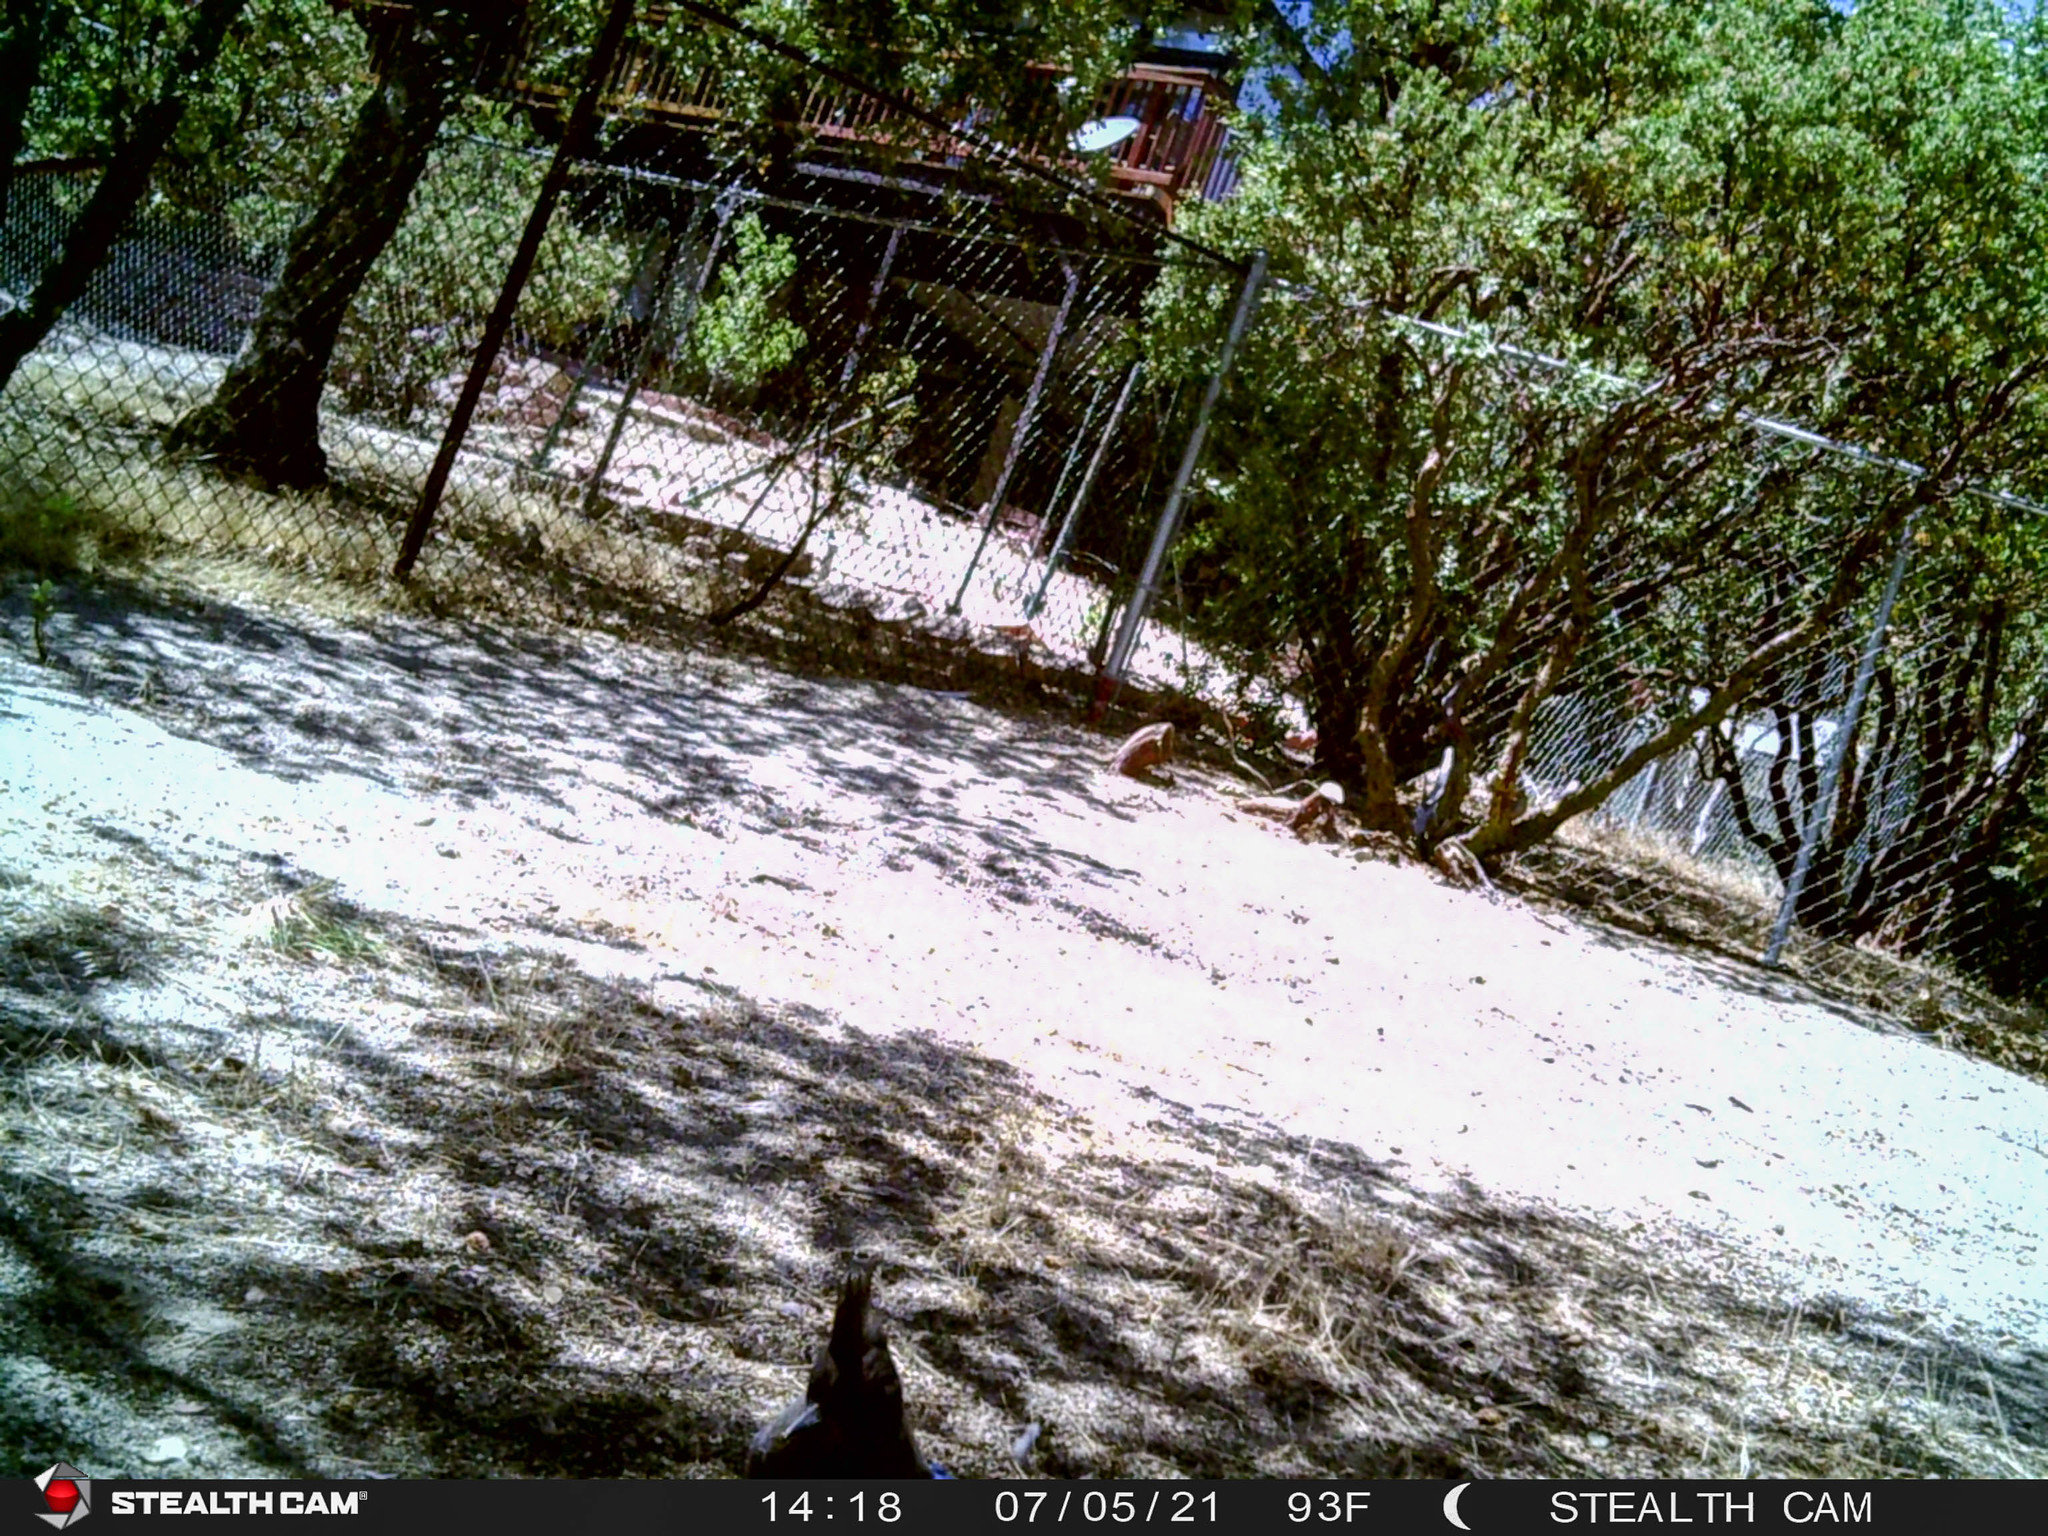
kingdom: Animalia
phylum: Chordata
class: Aves
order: Passeriformes
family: Corvidae
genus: Cyanocitta
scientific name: Cyanocitta stelleri
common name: Steller's jay
